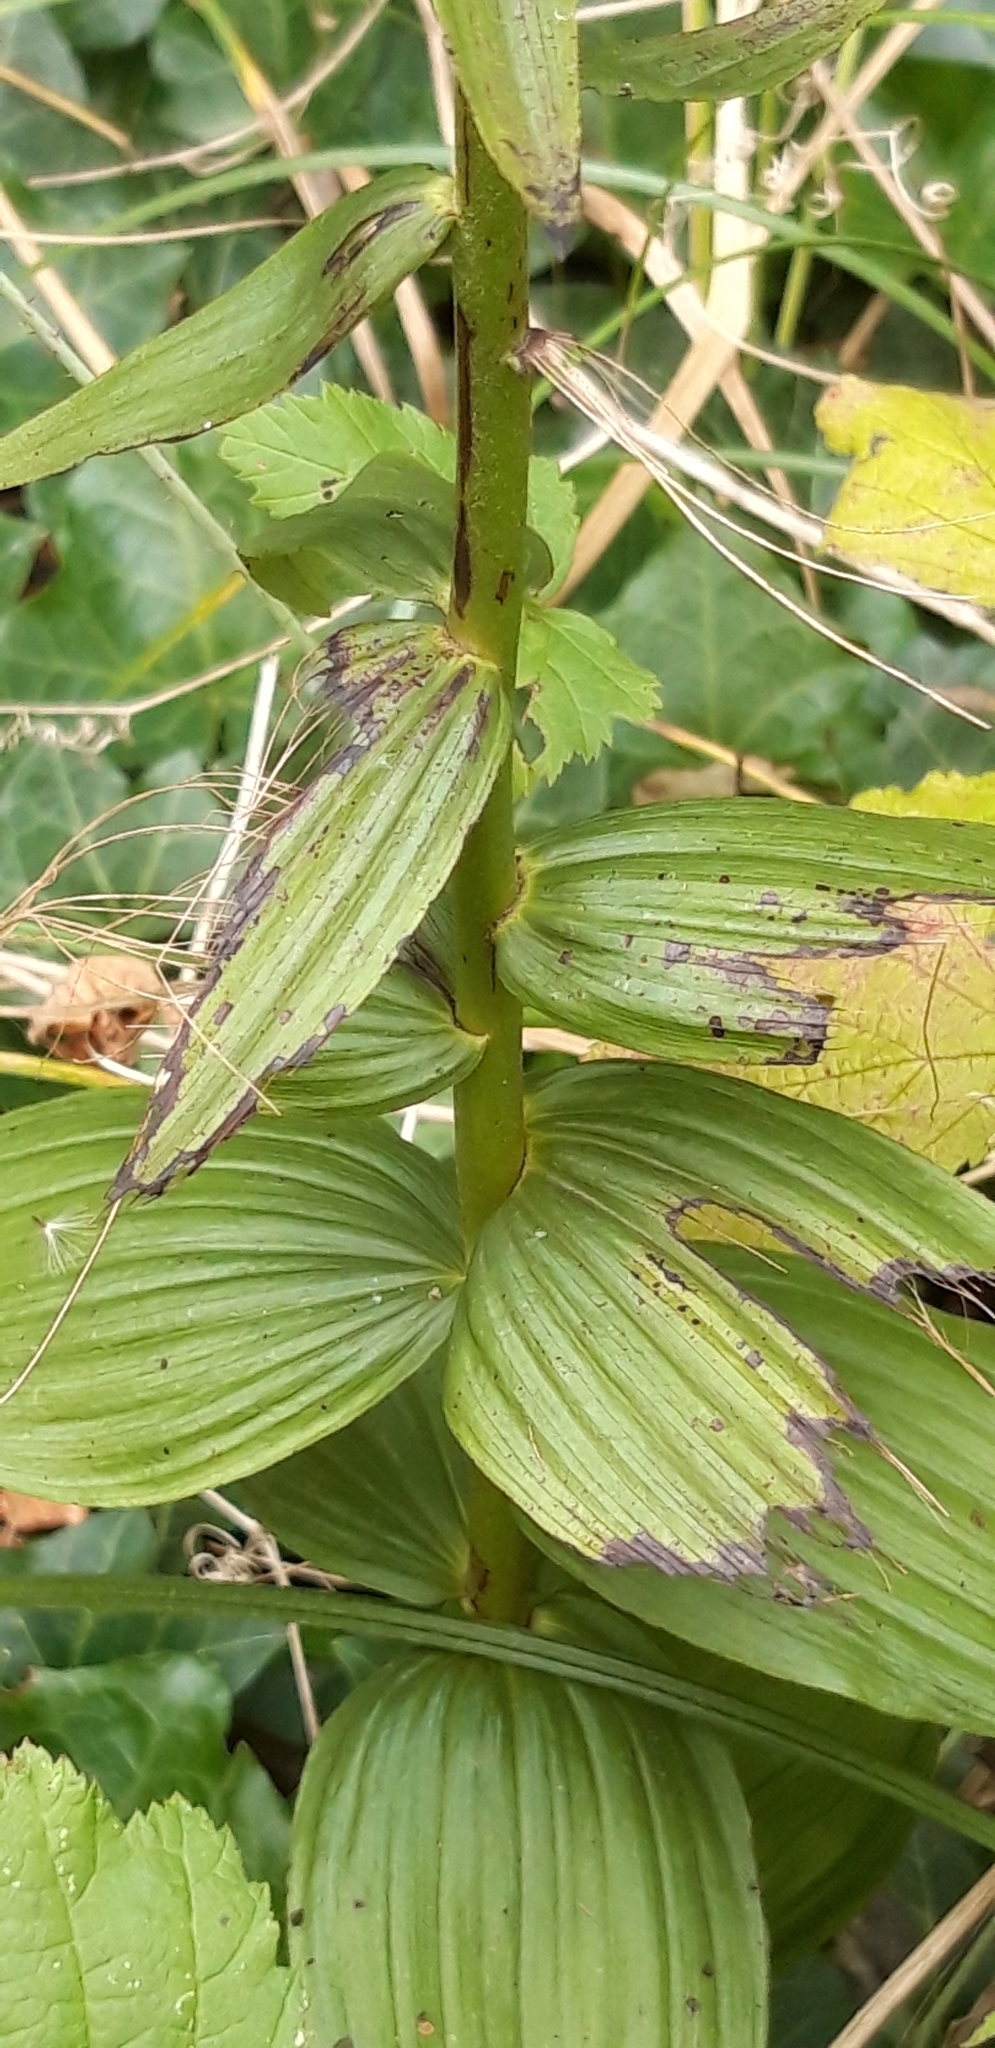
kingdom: Plantae
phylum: Tracheophyta
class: Liliopsida
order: Asparagales
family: Orchidaceae
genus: Epipactis
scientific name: Epipactis helleborine
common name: Broad-leaved helleborine
